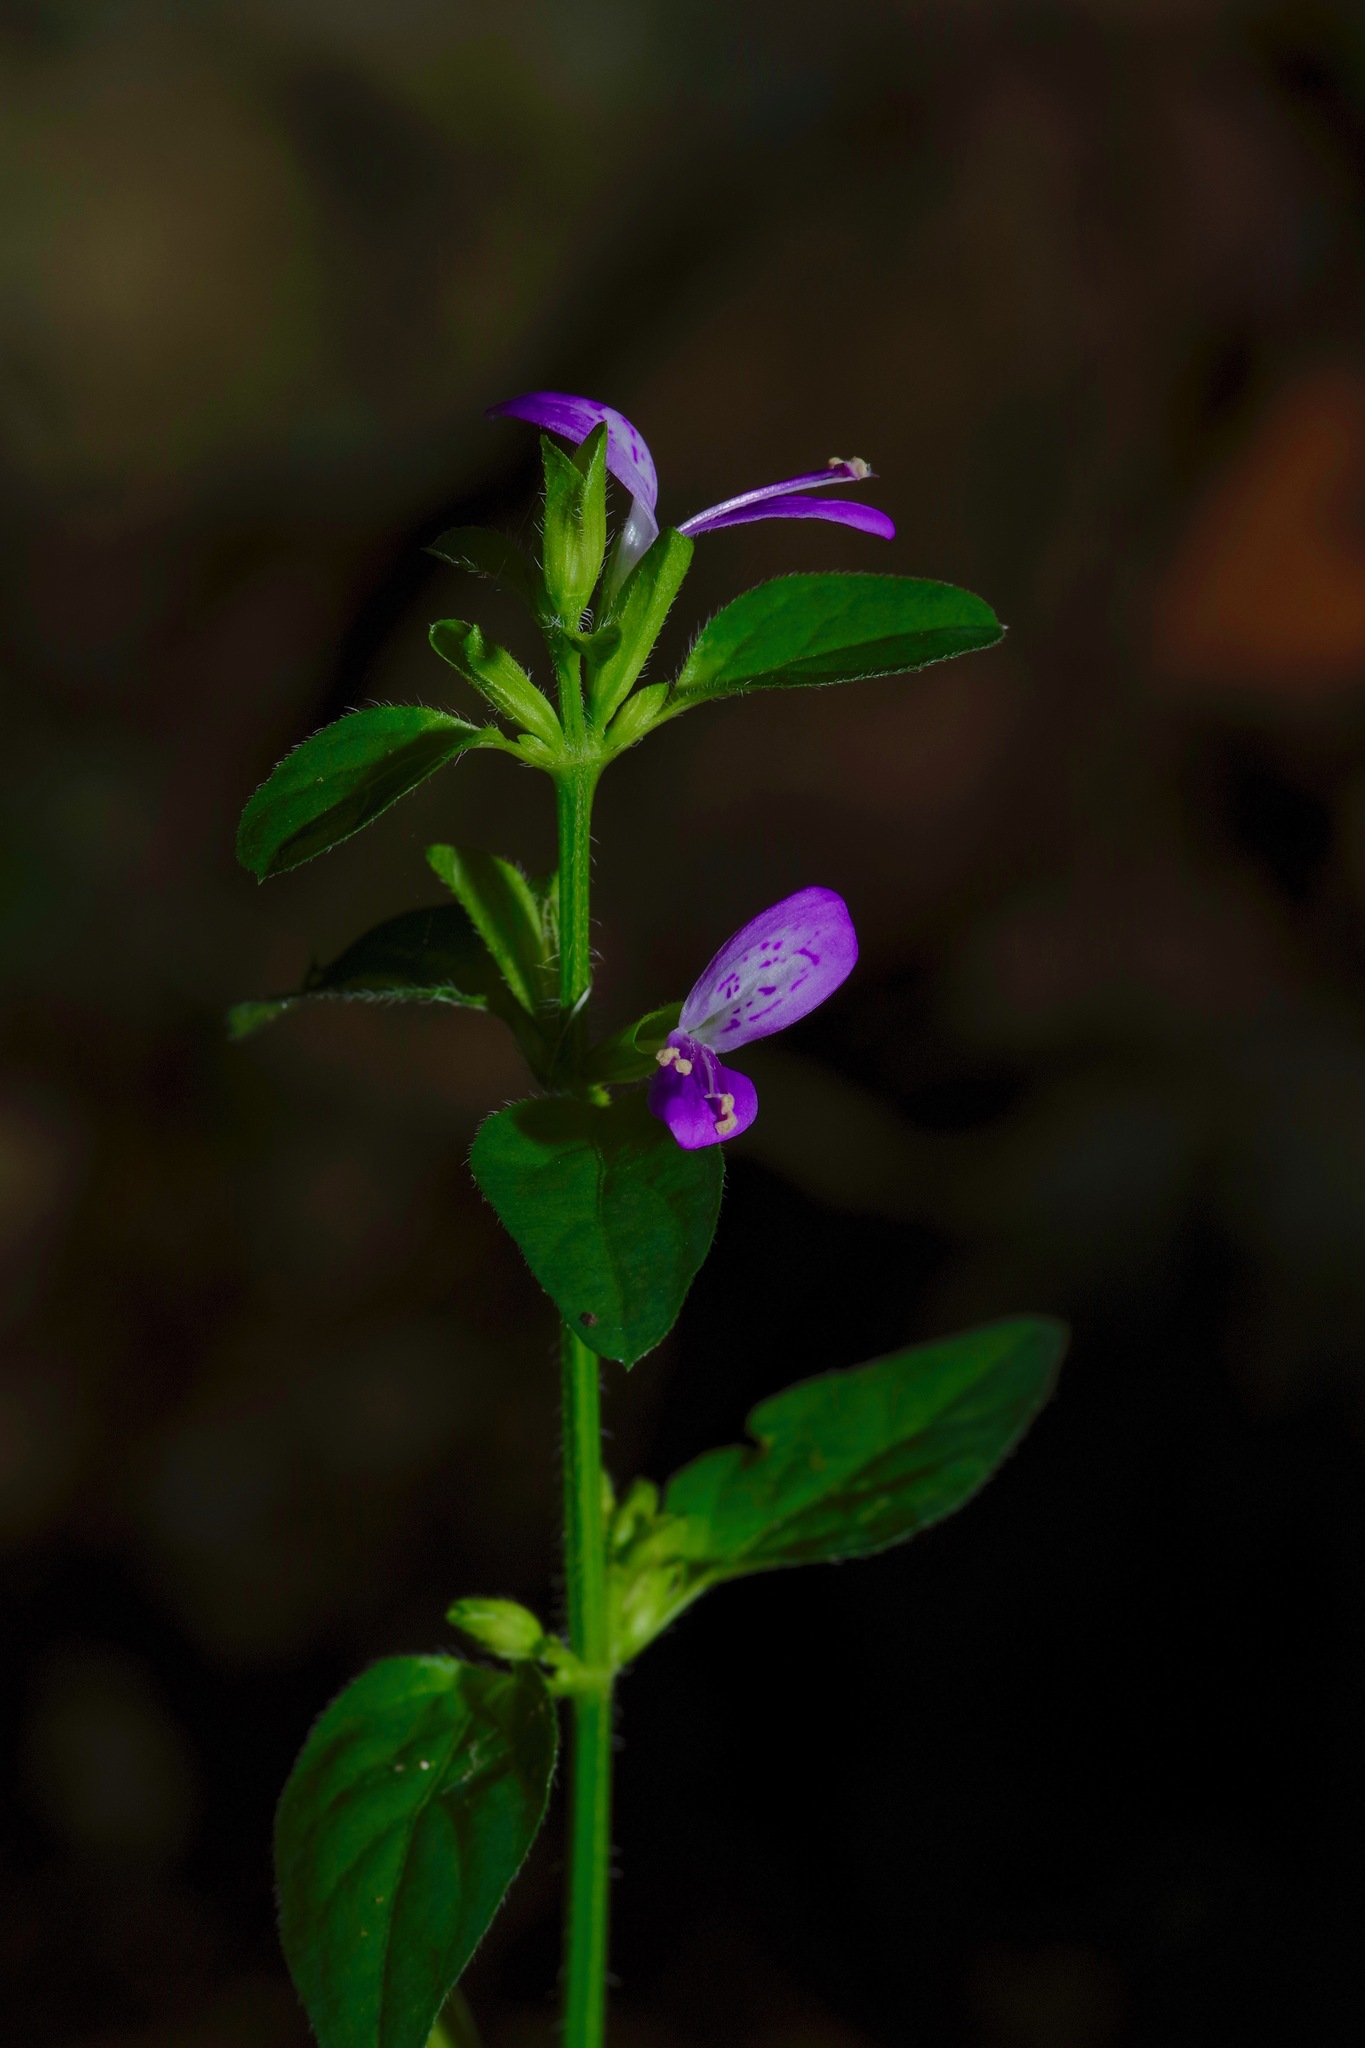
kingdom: Plantae
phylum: Tracheophyta
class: Magnoliopsida
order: Lamiales
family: Acanthaceae
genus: Dicliptera
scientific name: Dicliptera brachiata
